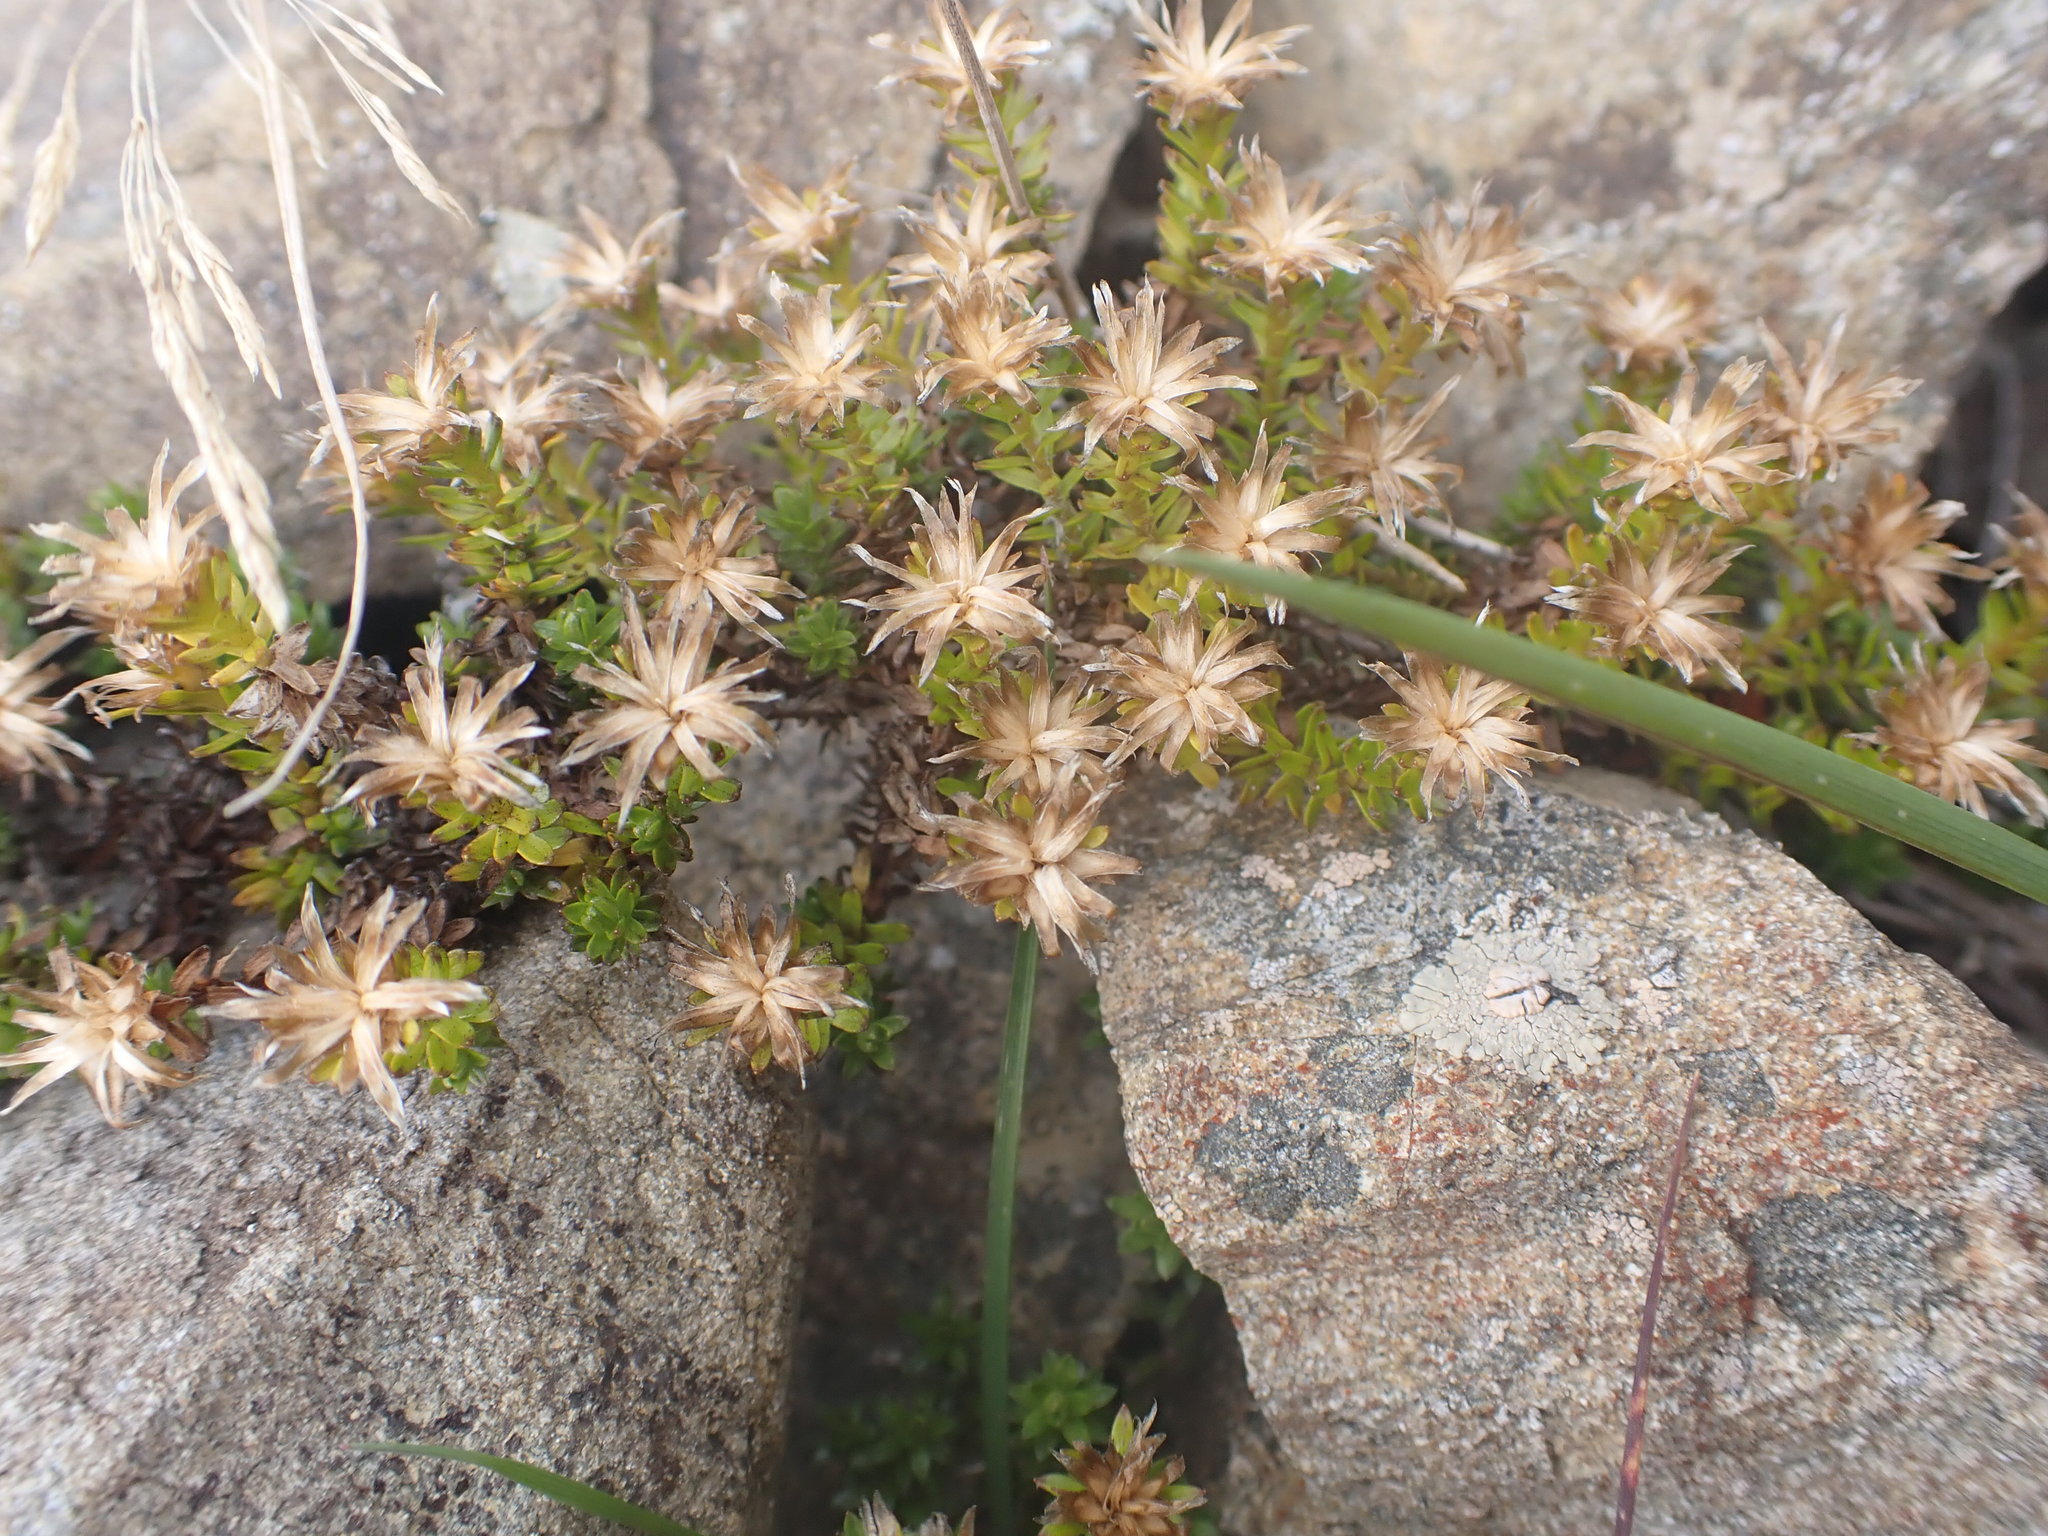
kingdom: Plantae
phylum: Tracheophyta
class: Magnoliopsida
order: Asterales
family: Asteraceae
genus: Raoulia
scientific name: Raoulia glabra
